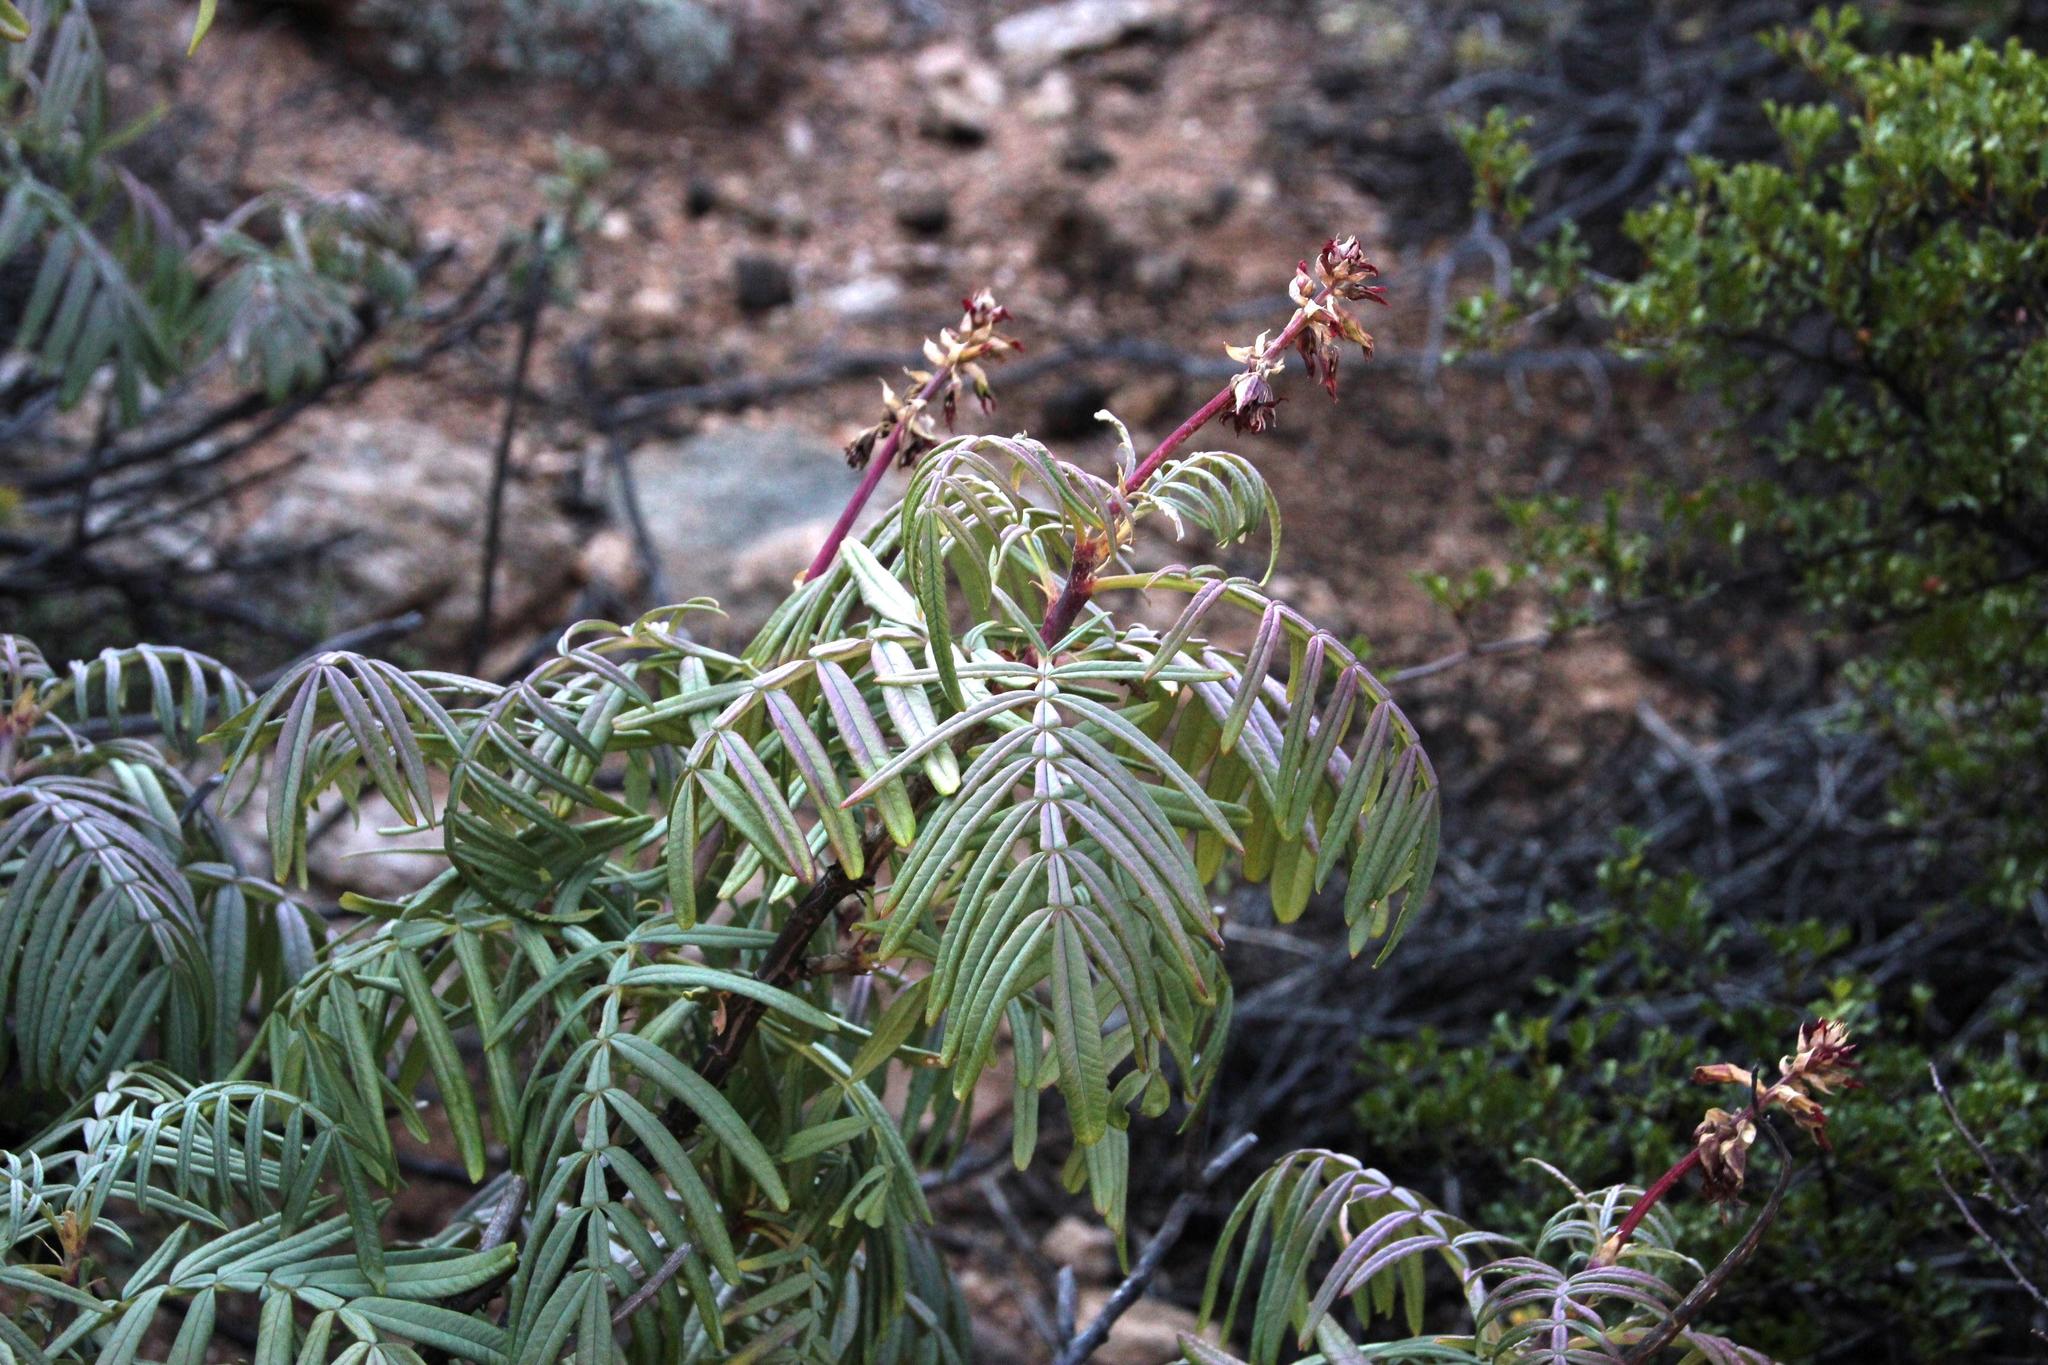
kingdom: Plantae
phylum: Tracheophyta
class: Magnoliopsida
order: Geraniales
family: Melianthaceae
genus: Melianthus
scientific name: Melianthus pectinatus
